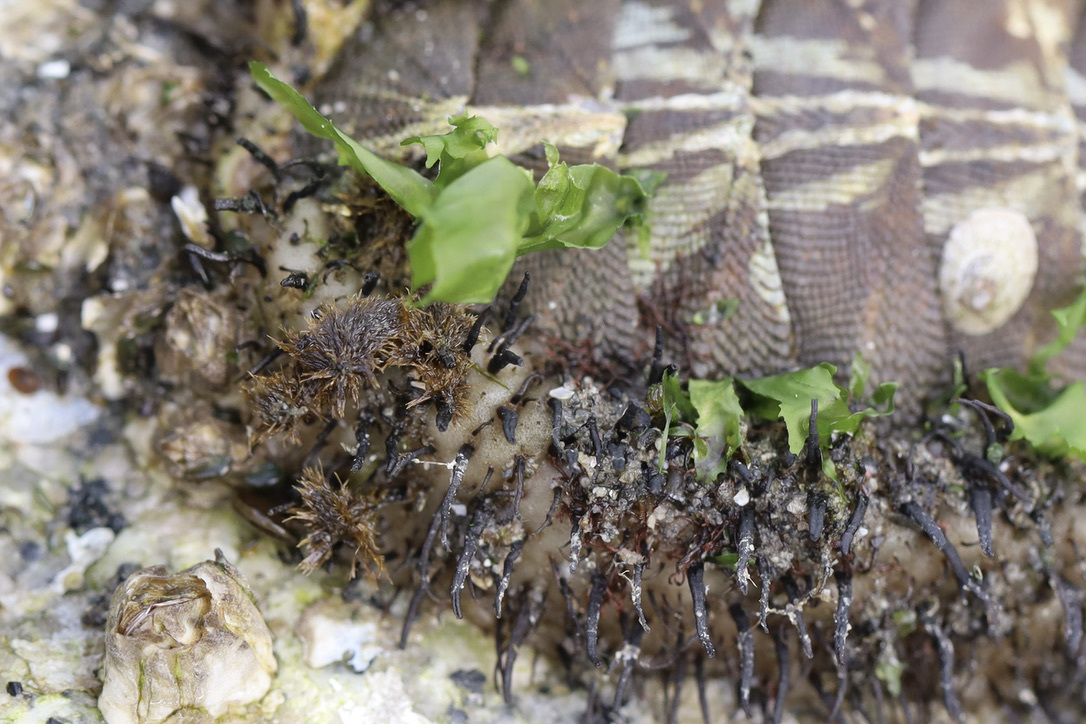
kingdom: Animalia
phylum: Mollusca
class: Polyplacophora
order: Chitonida
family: Mopaliidae
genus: Mopalia
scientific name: Mopalia muscosa
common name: Mossy chiton
